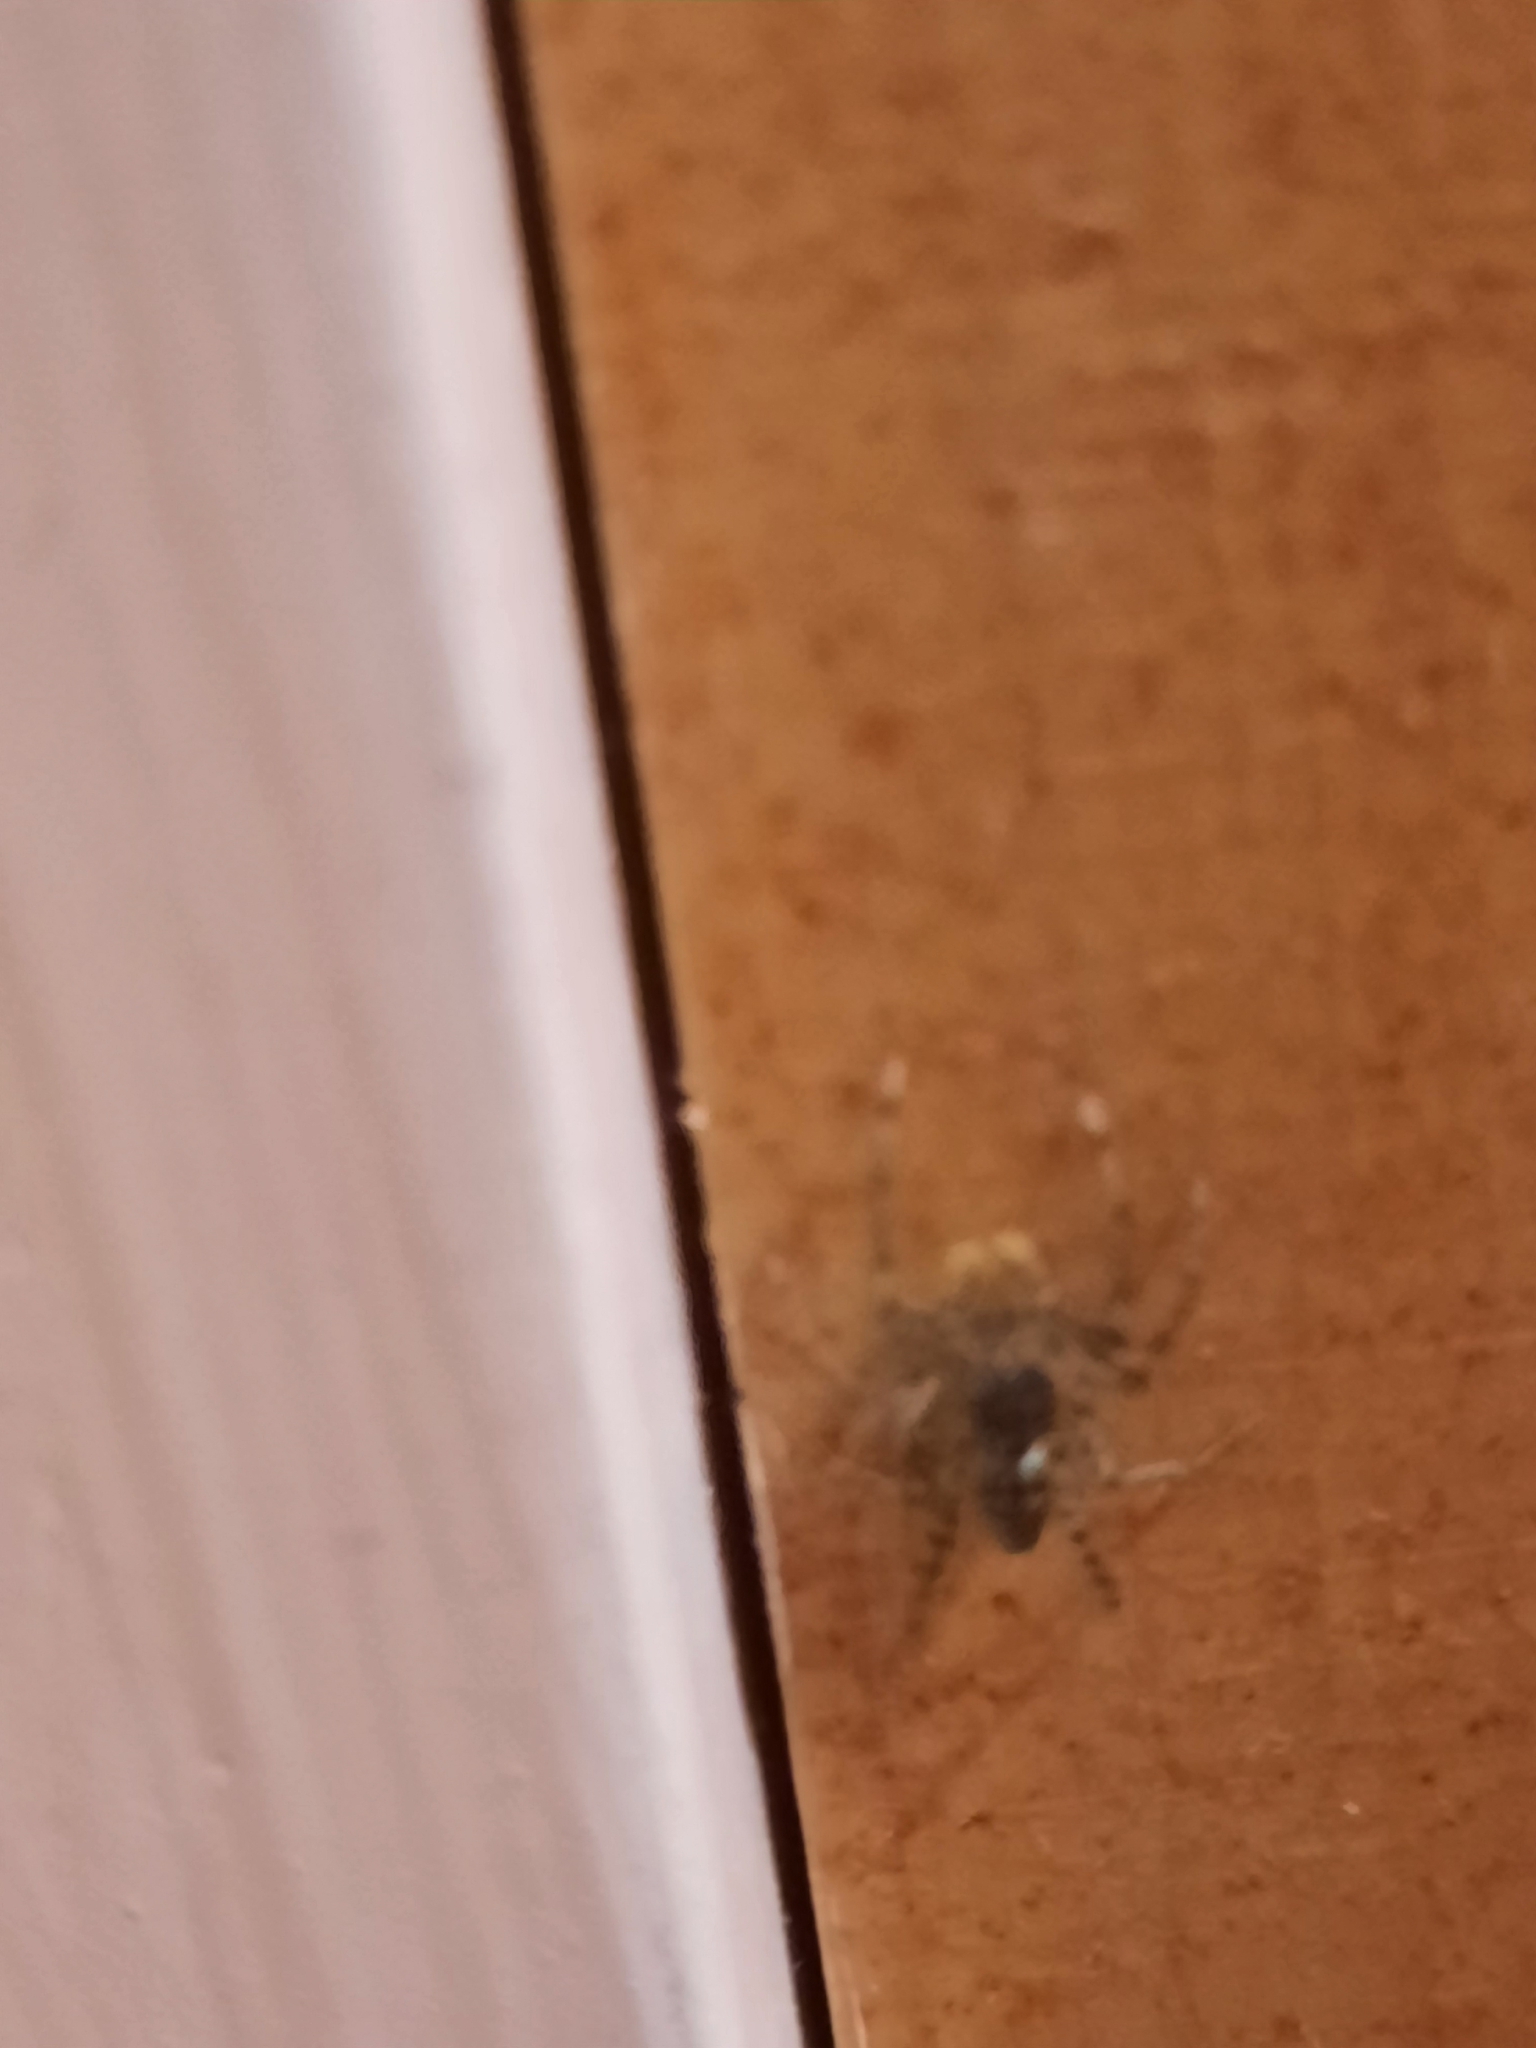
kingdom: Animalia
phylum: Arthropoda
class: Arachnida
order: Araneae
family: Salticidae
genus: Maevia
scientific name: Maevia inclemens
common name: Dimorphic jumper
